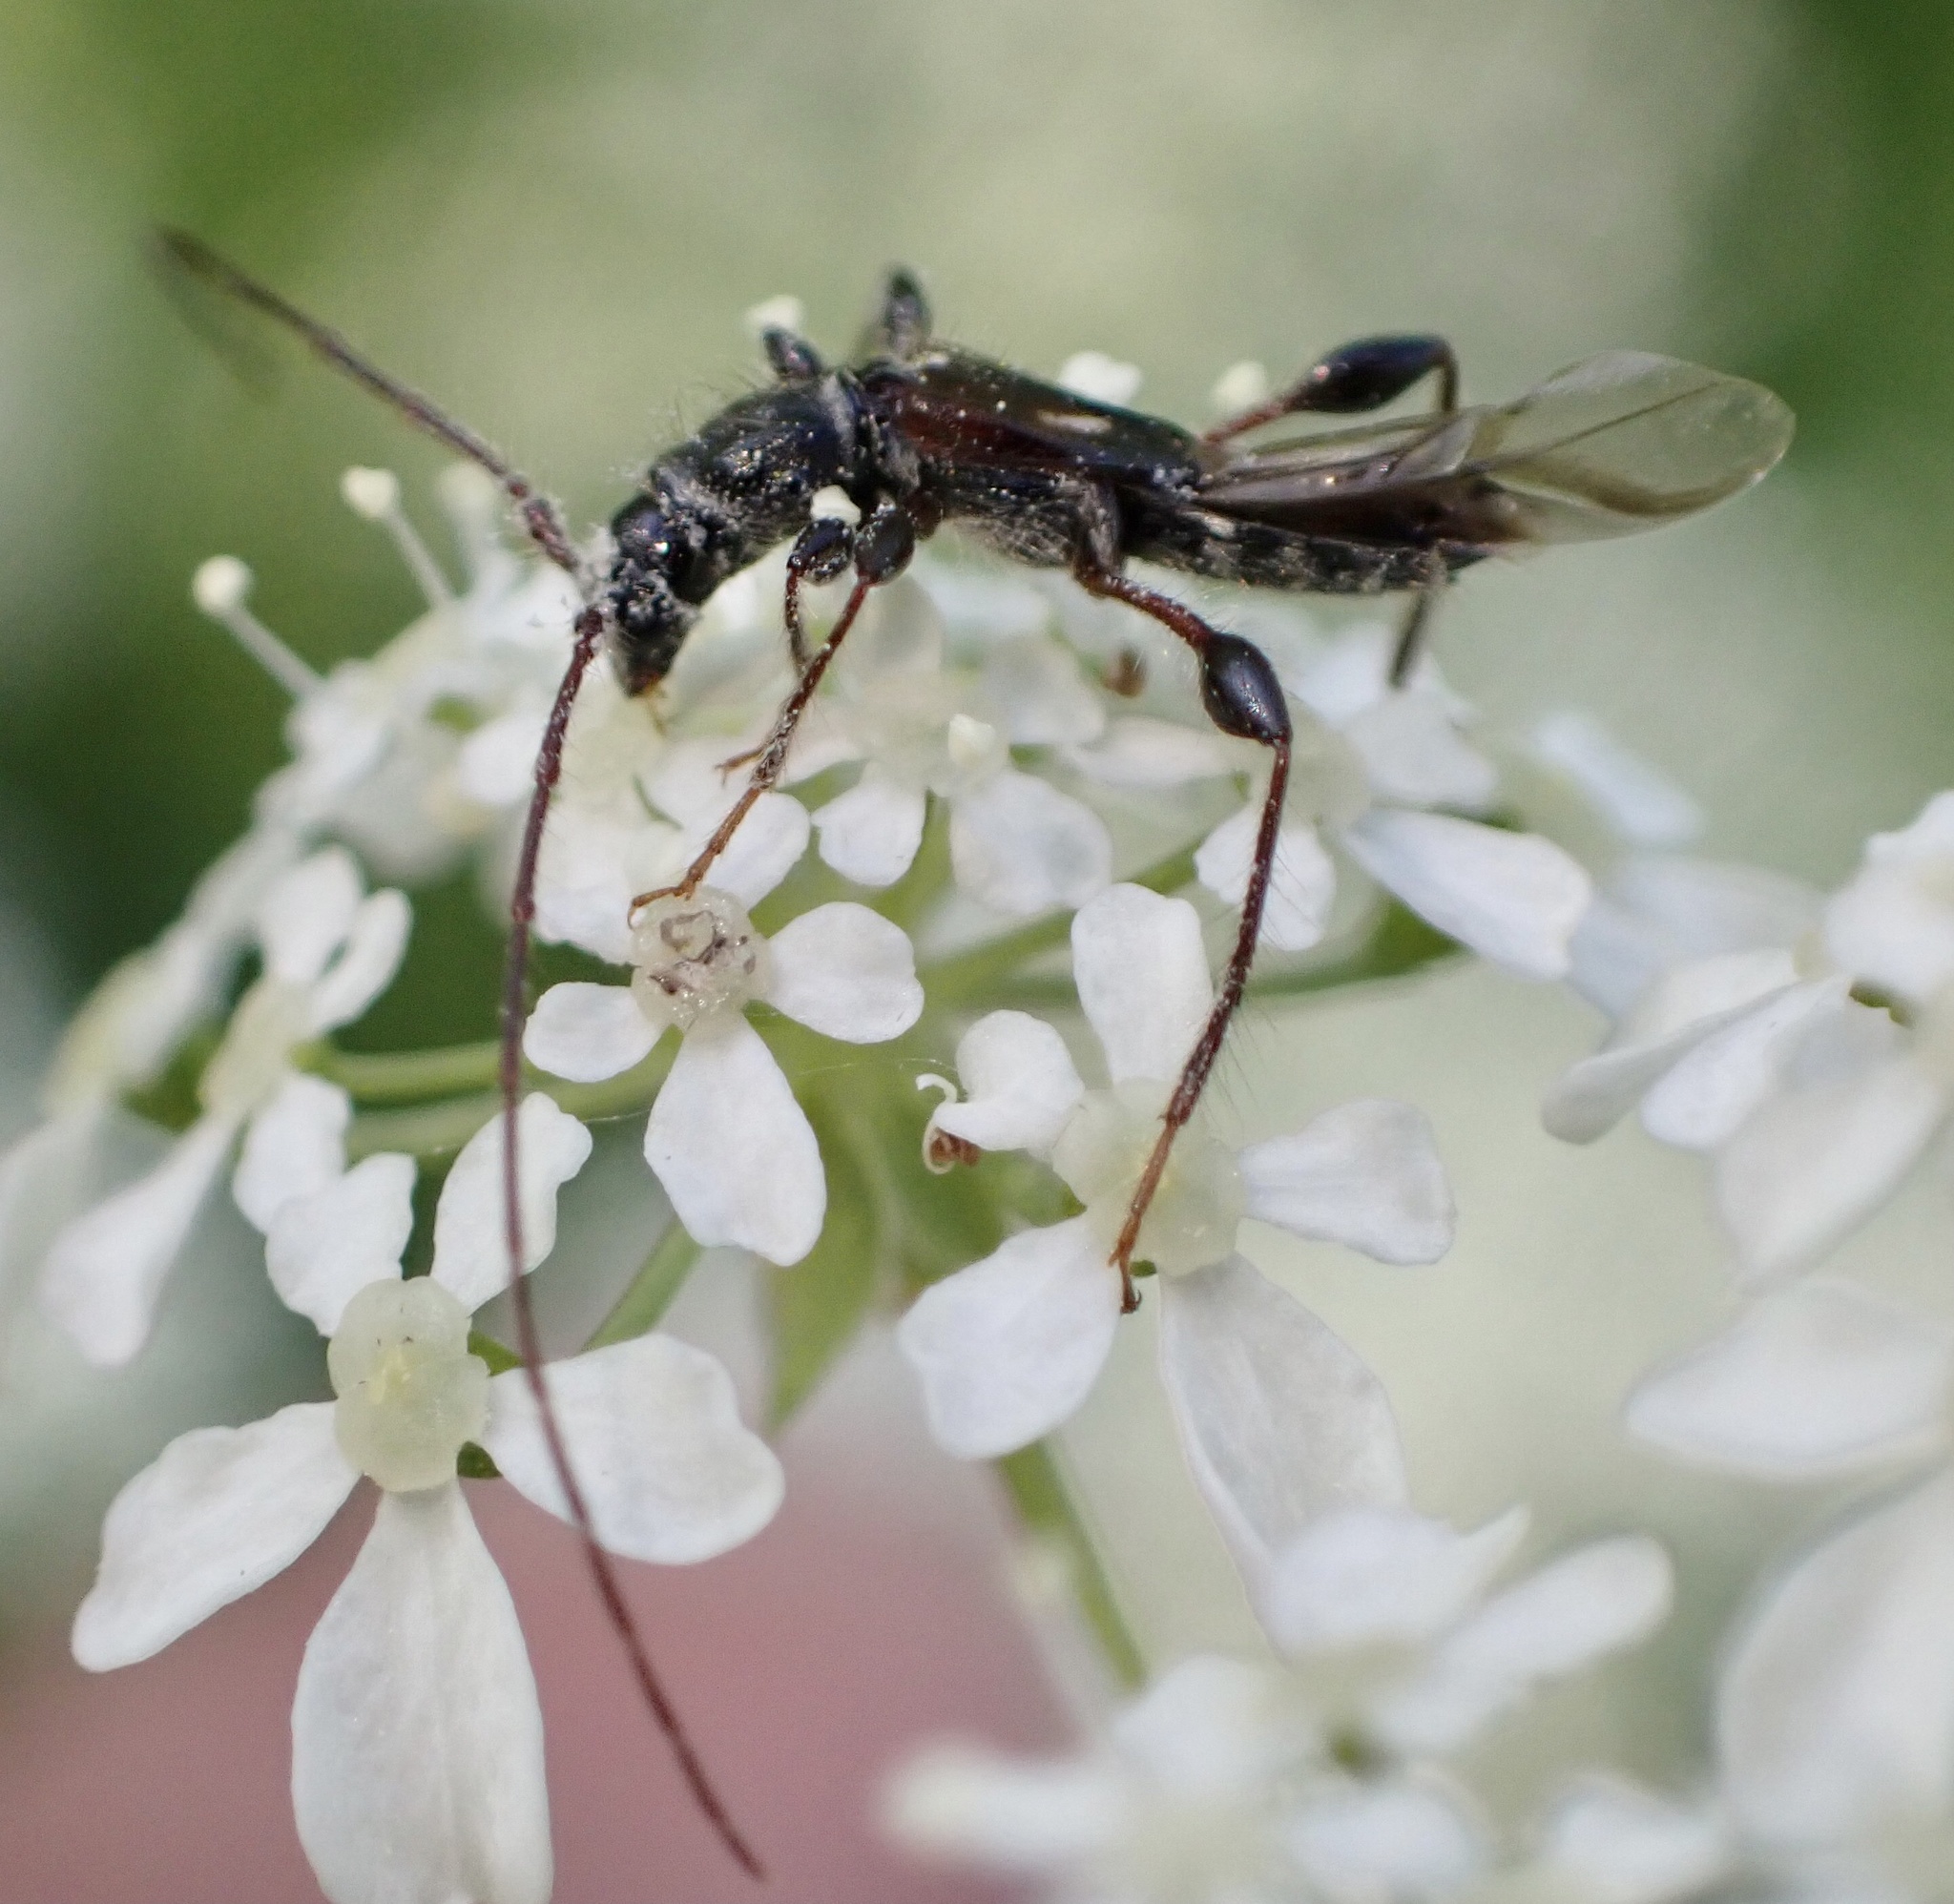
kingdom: Animalia
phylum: Arthropoda
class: Insecta
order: Coleoptera
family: Cerambycidae
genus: Molorchus
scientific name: Molorchus minor
